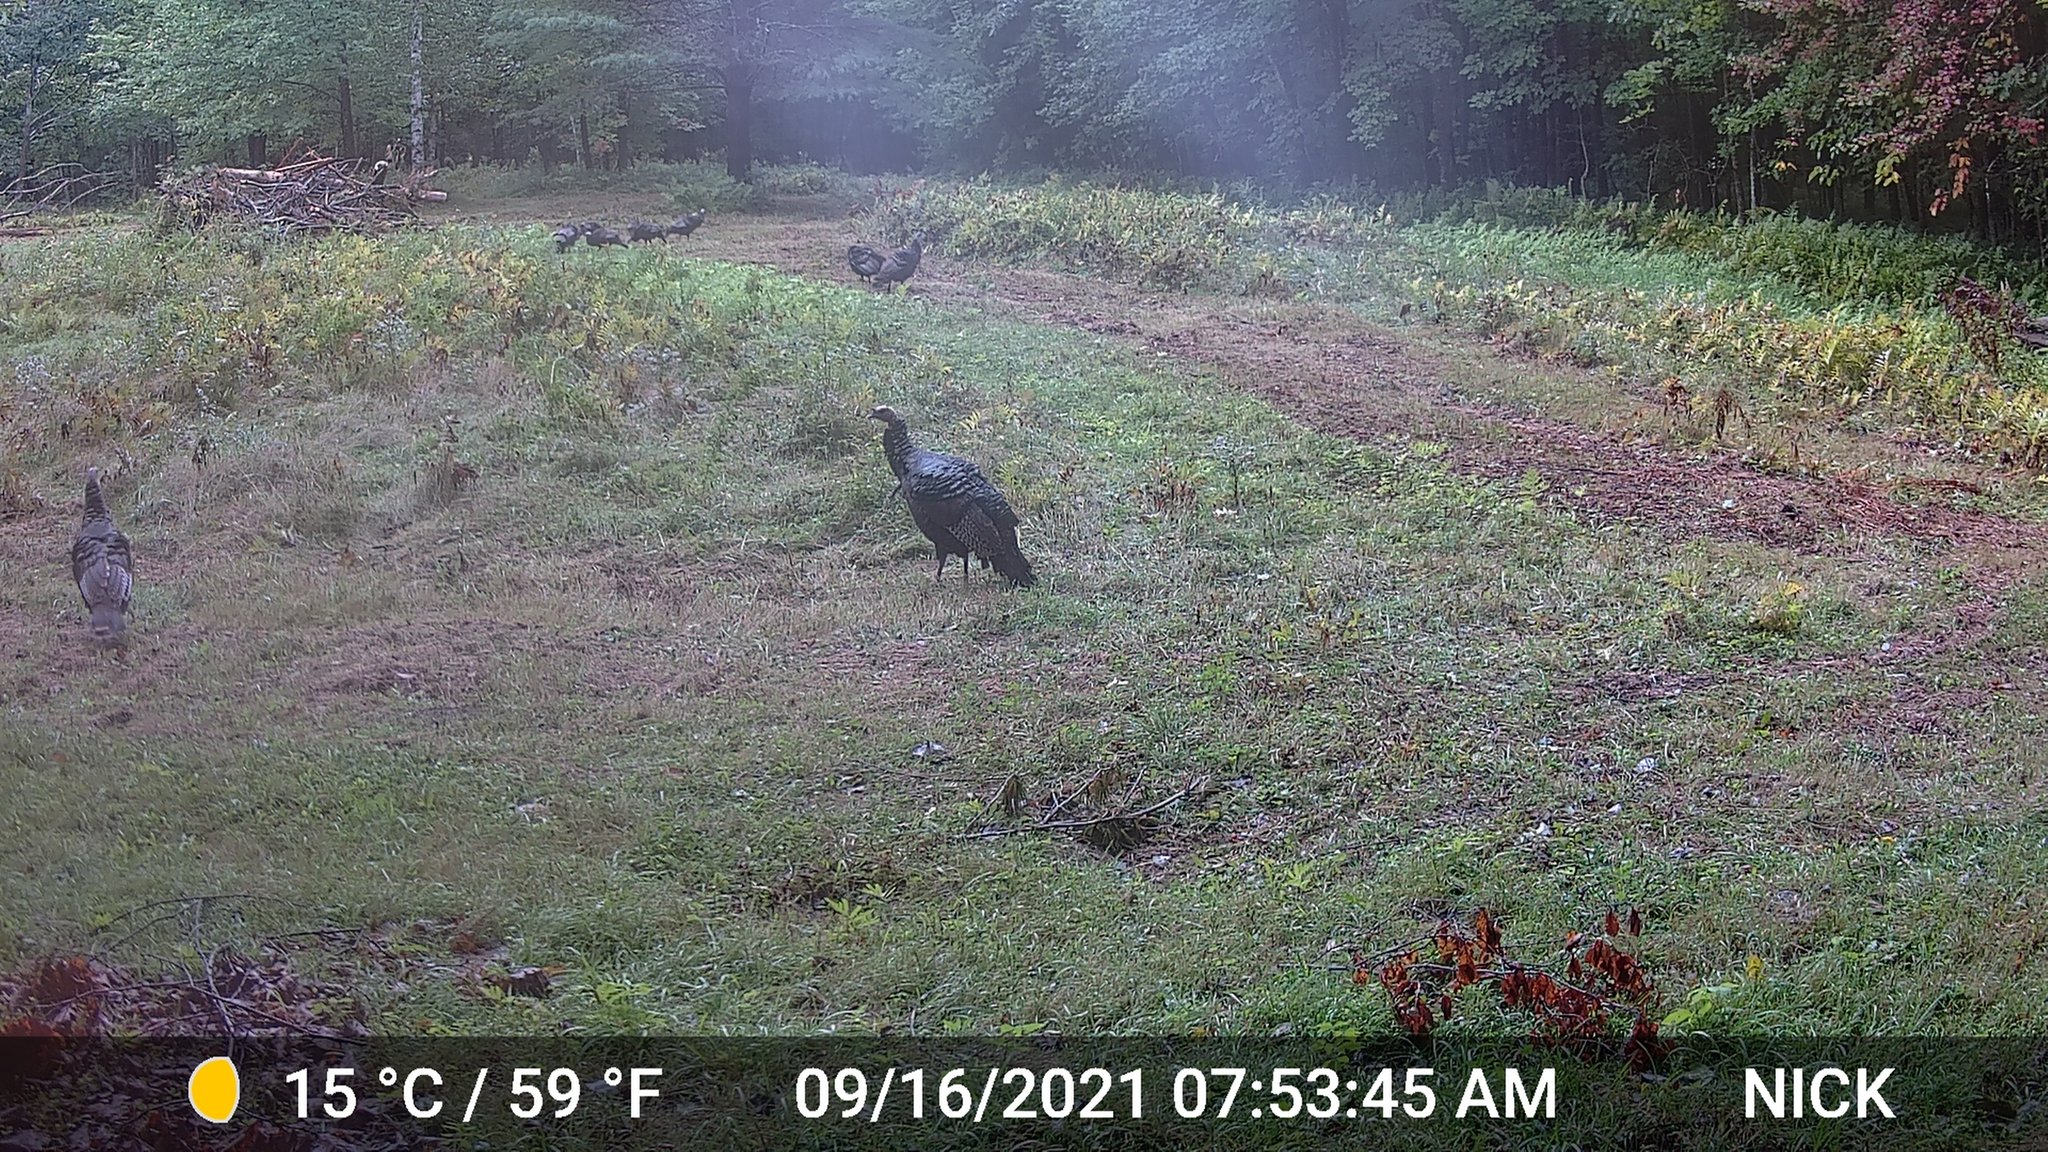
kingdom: Animalia
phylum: Chordata
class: Aves
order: Galliformes
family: Phasianidae
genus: Meleagris
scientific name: Meleagris gallopavo
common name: Wild turkey
